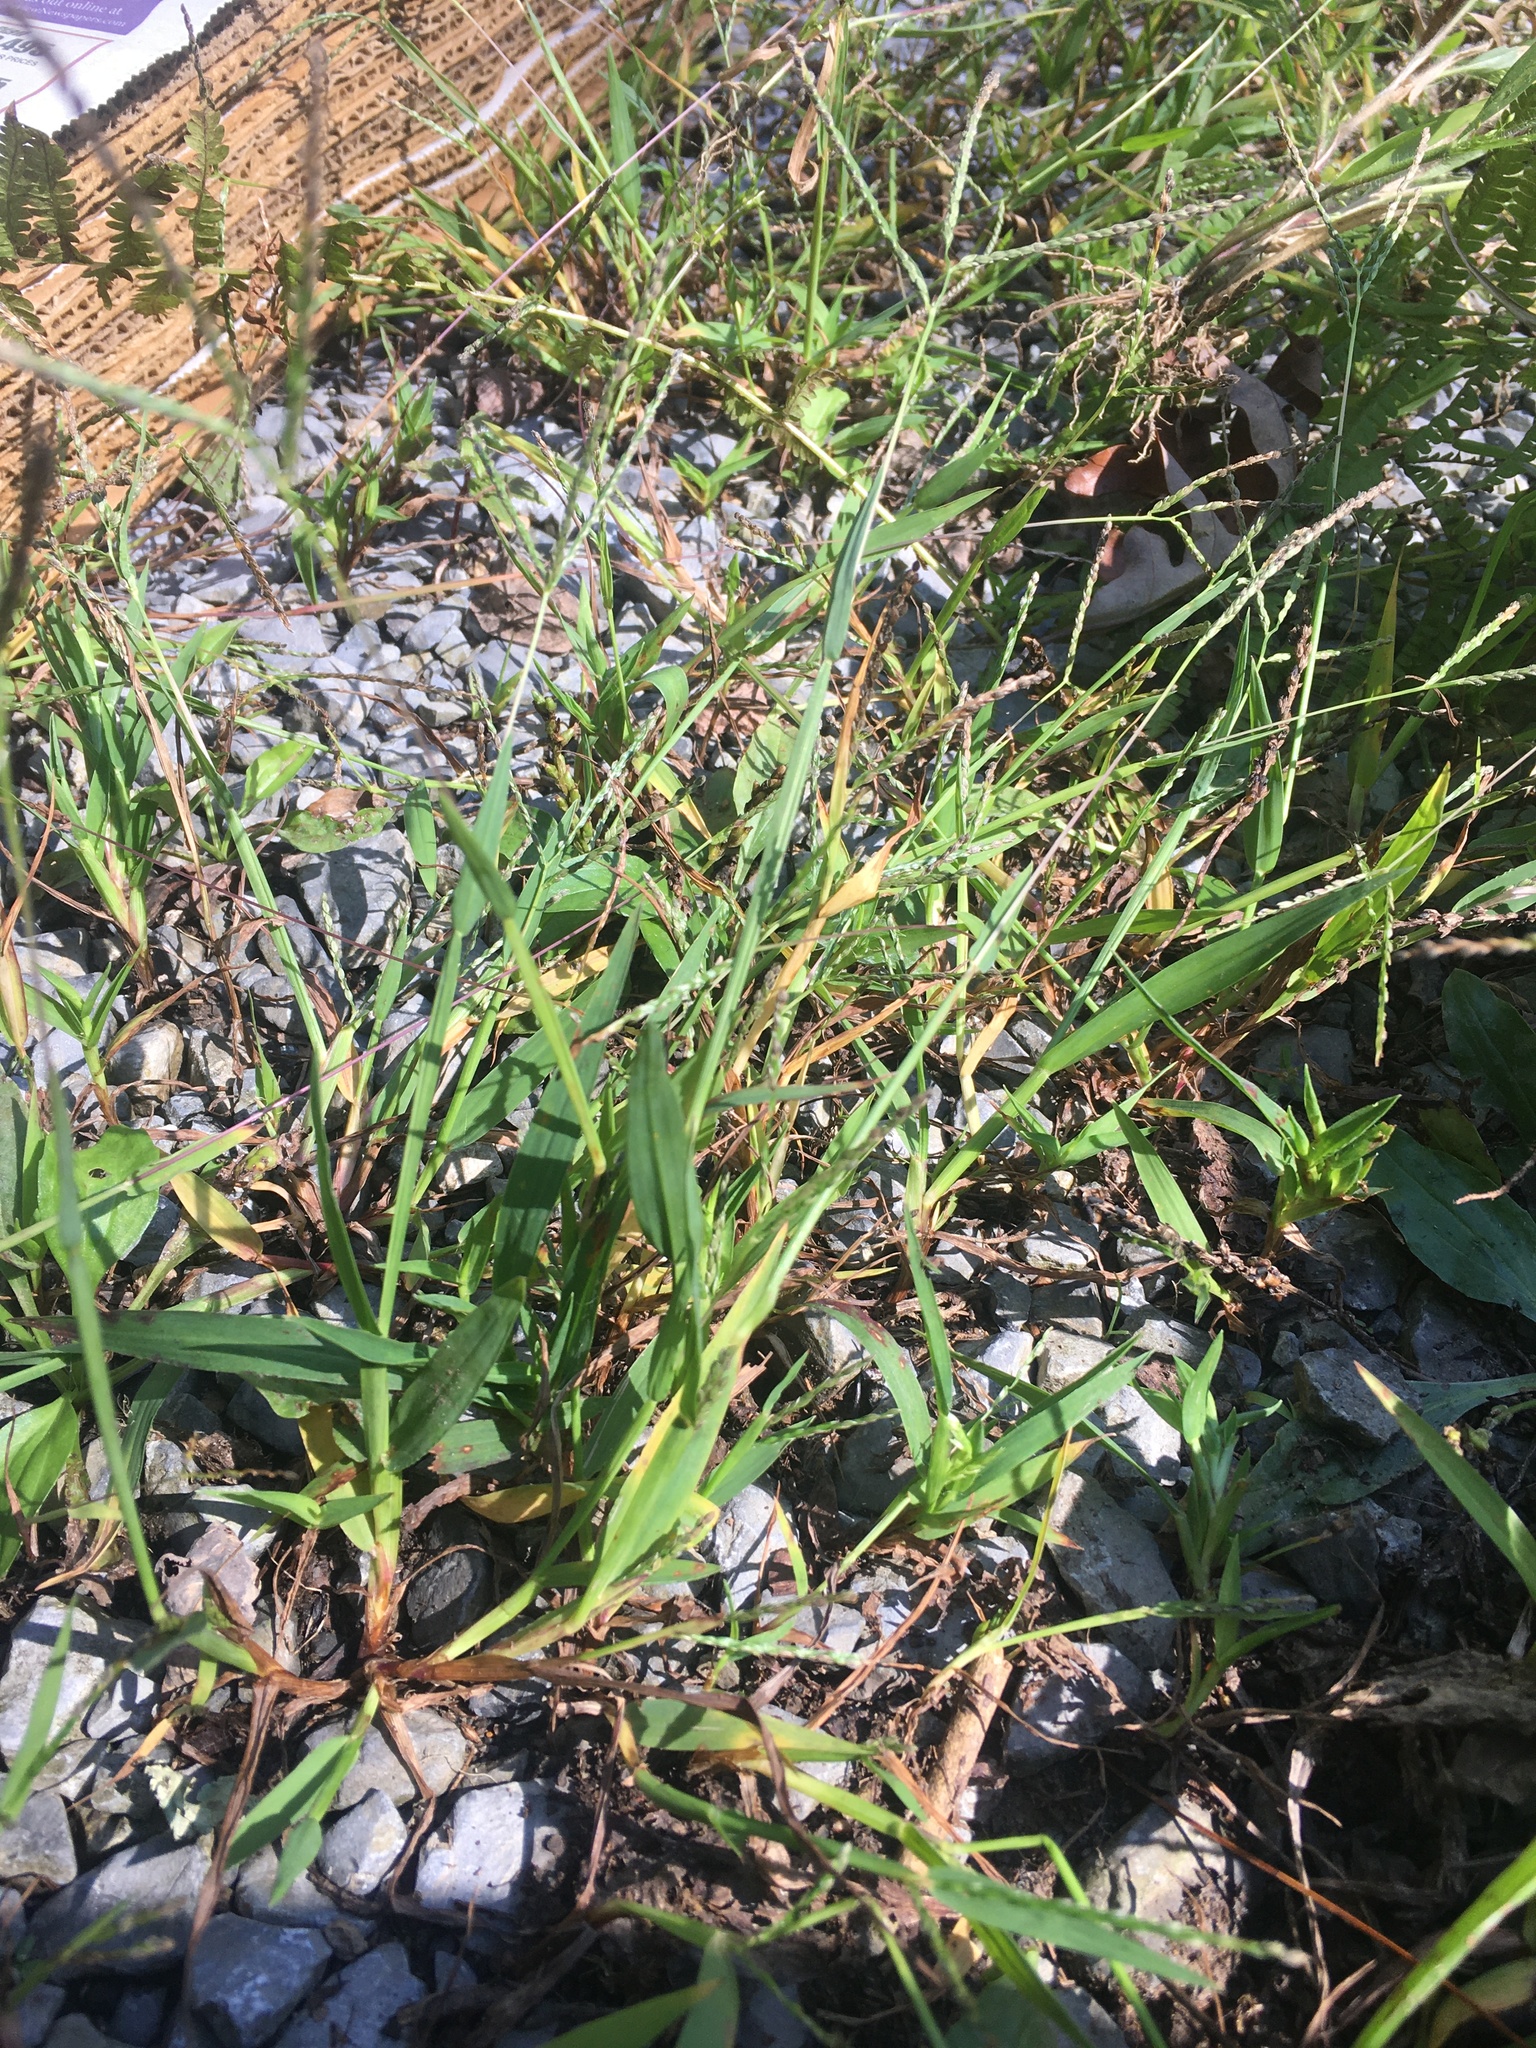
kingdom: Plantae
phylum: Tracheophyta
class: Liliopsida
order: Poales
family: Poaceae
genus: Digitaria
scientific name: Digitaria ischaemum
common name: Smooth crabgrass
